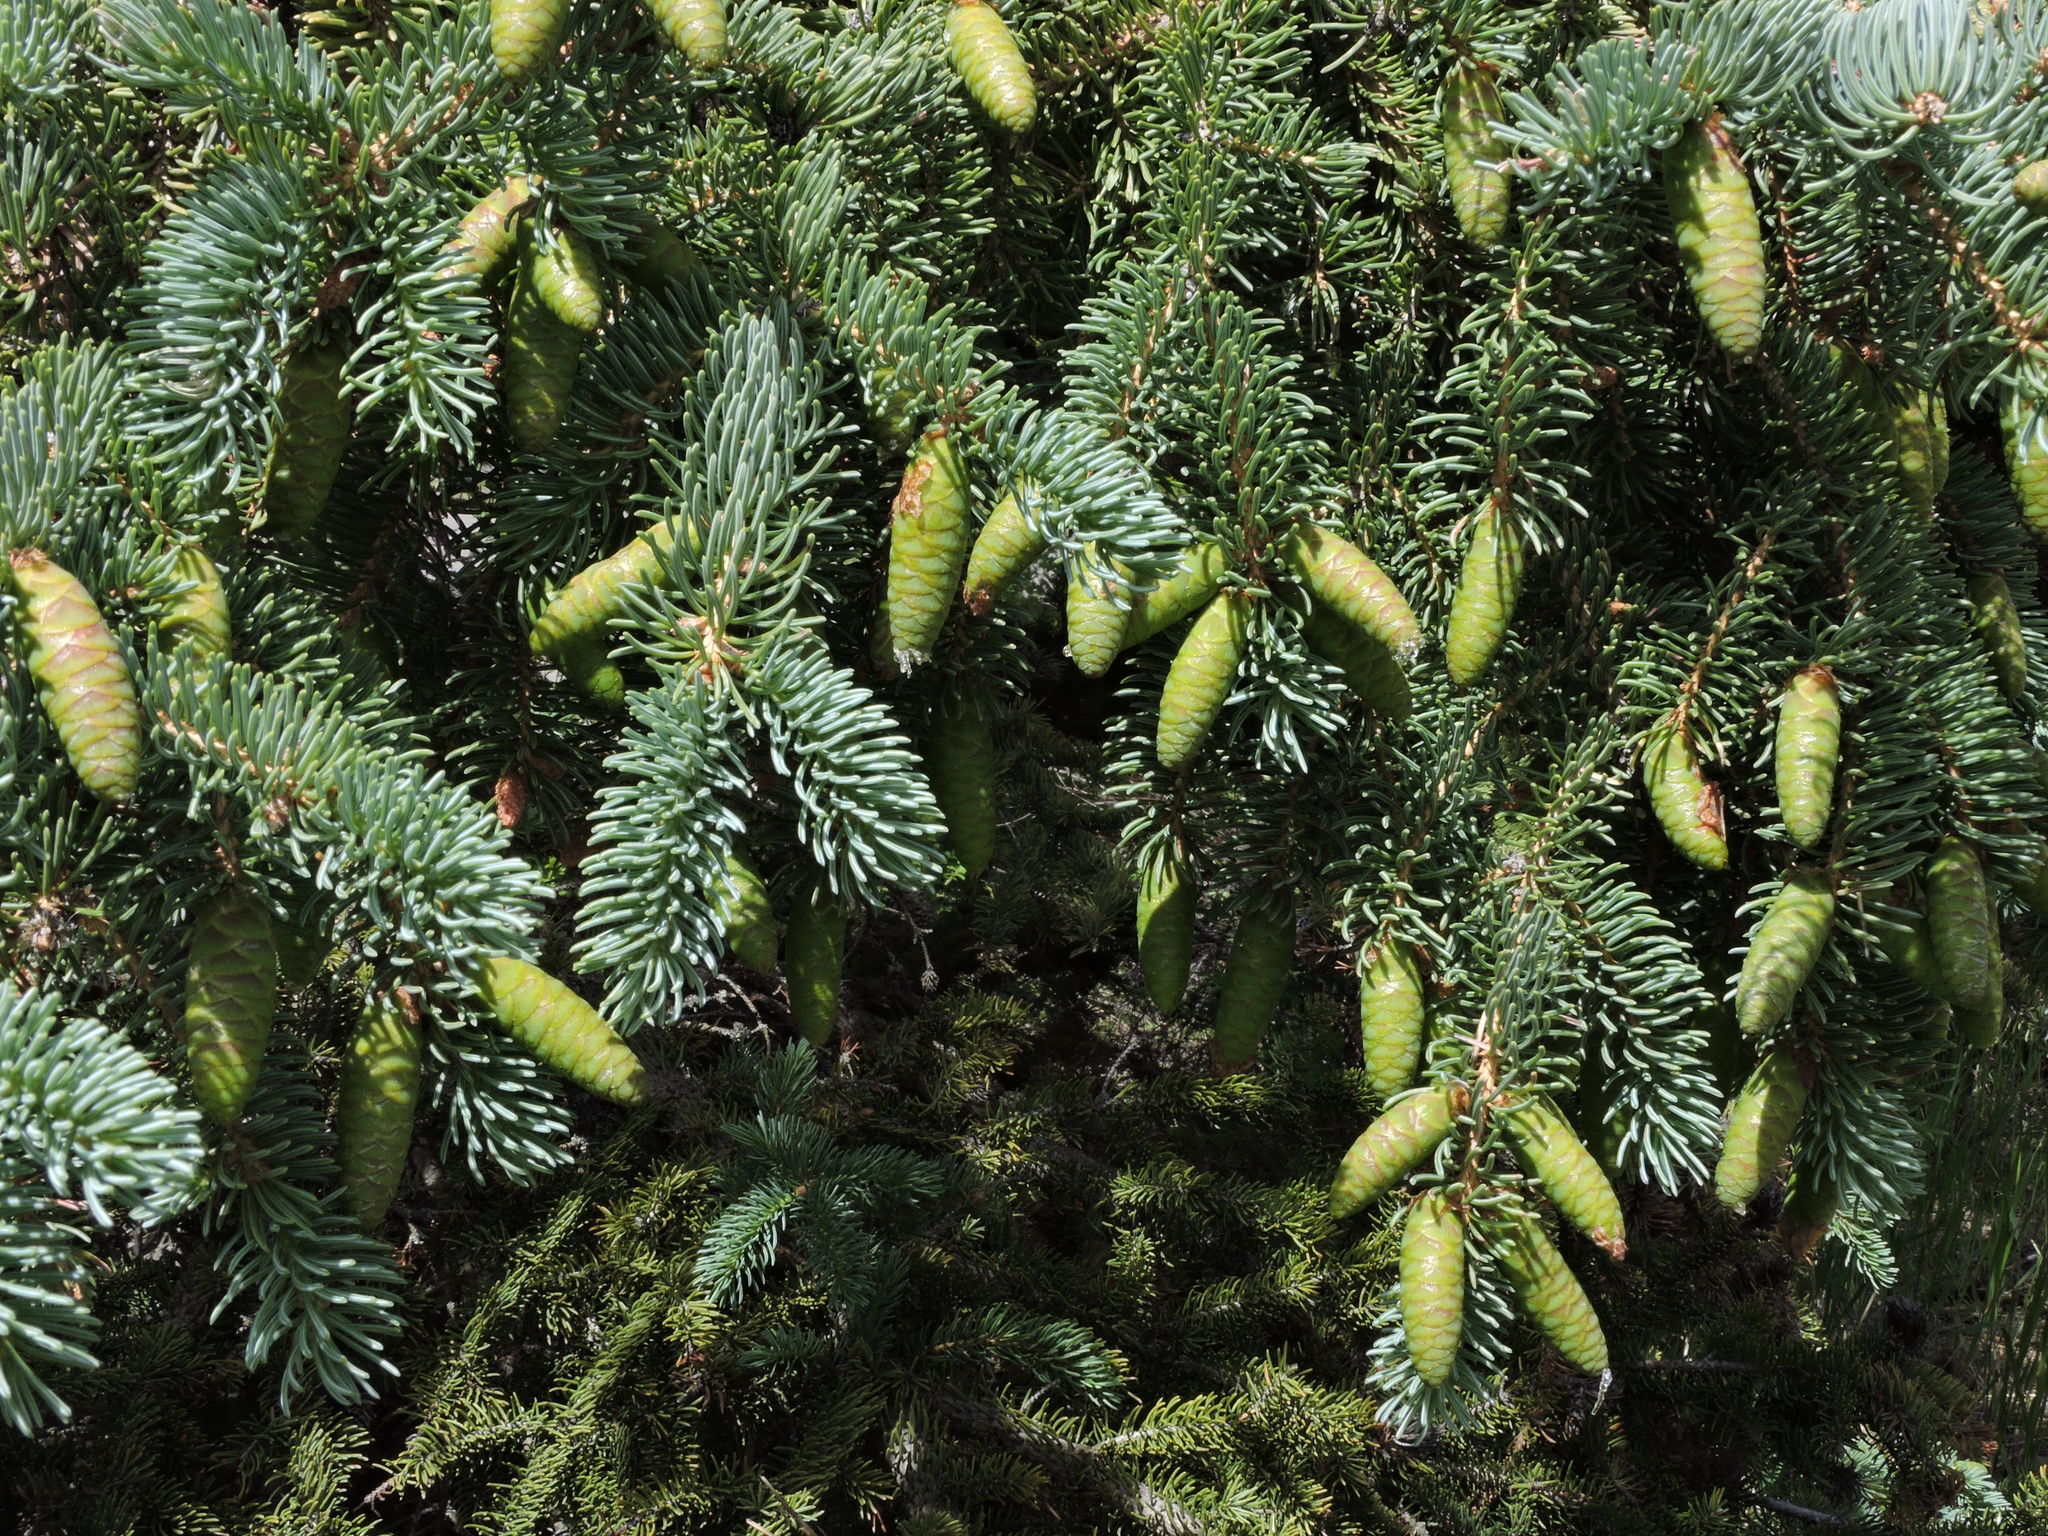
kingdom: Plantae
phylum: Tracheophyta
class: Pinopsida
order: Pinales
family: Pinaceae
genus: Picea
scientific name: Picea glauca
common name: White spruce
